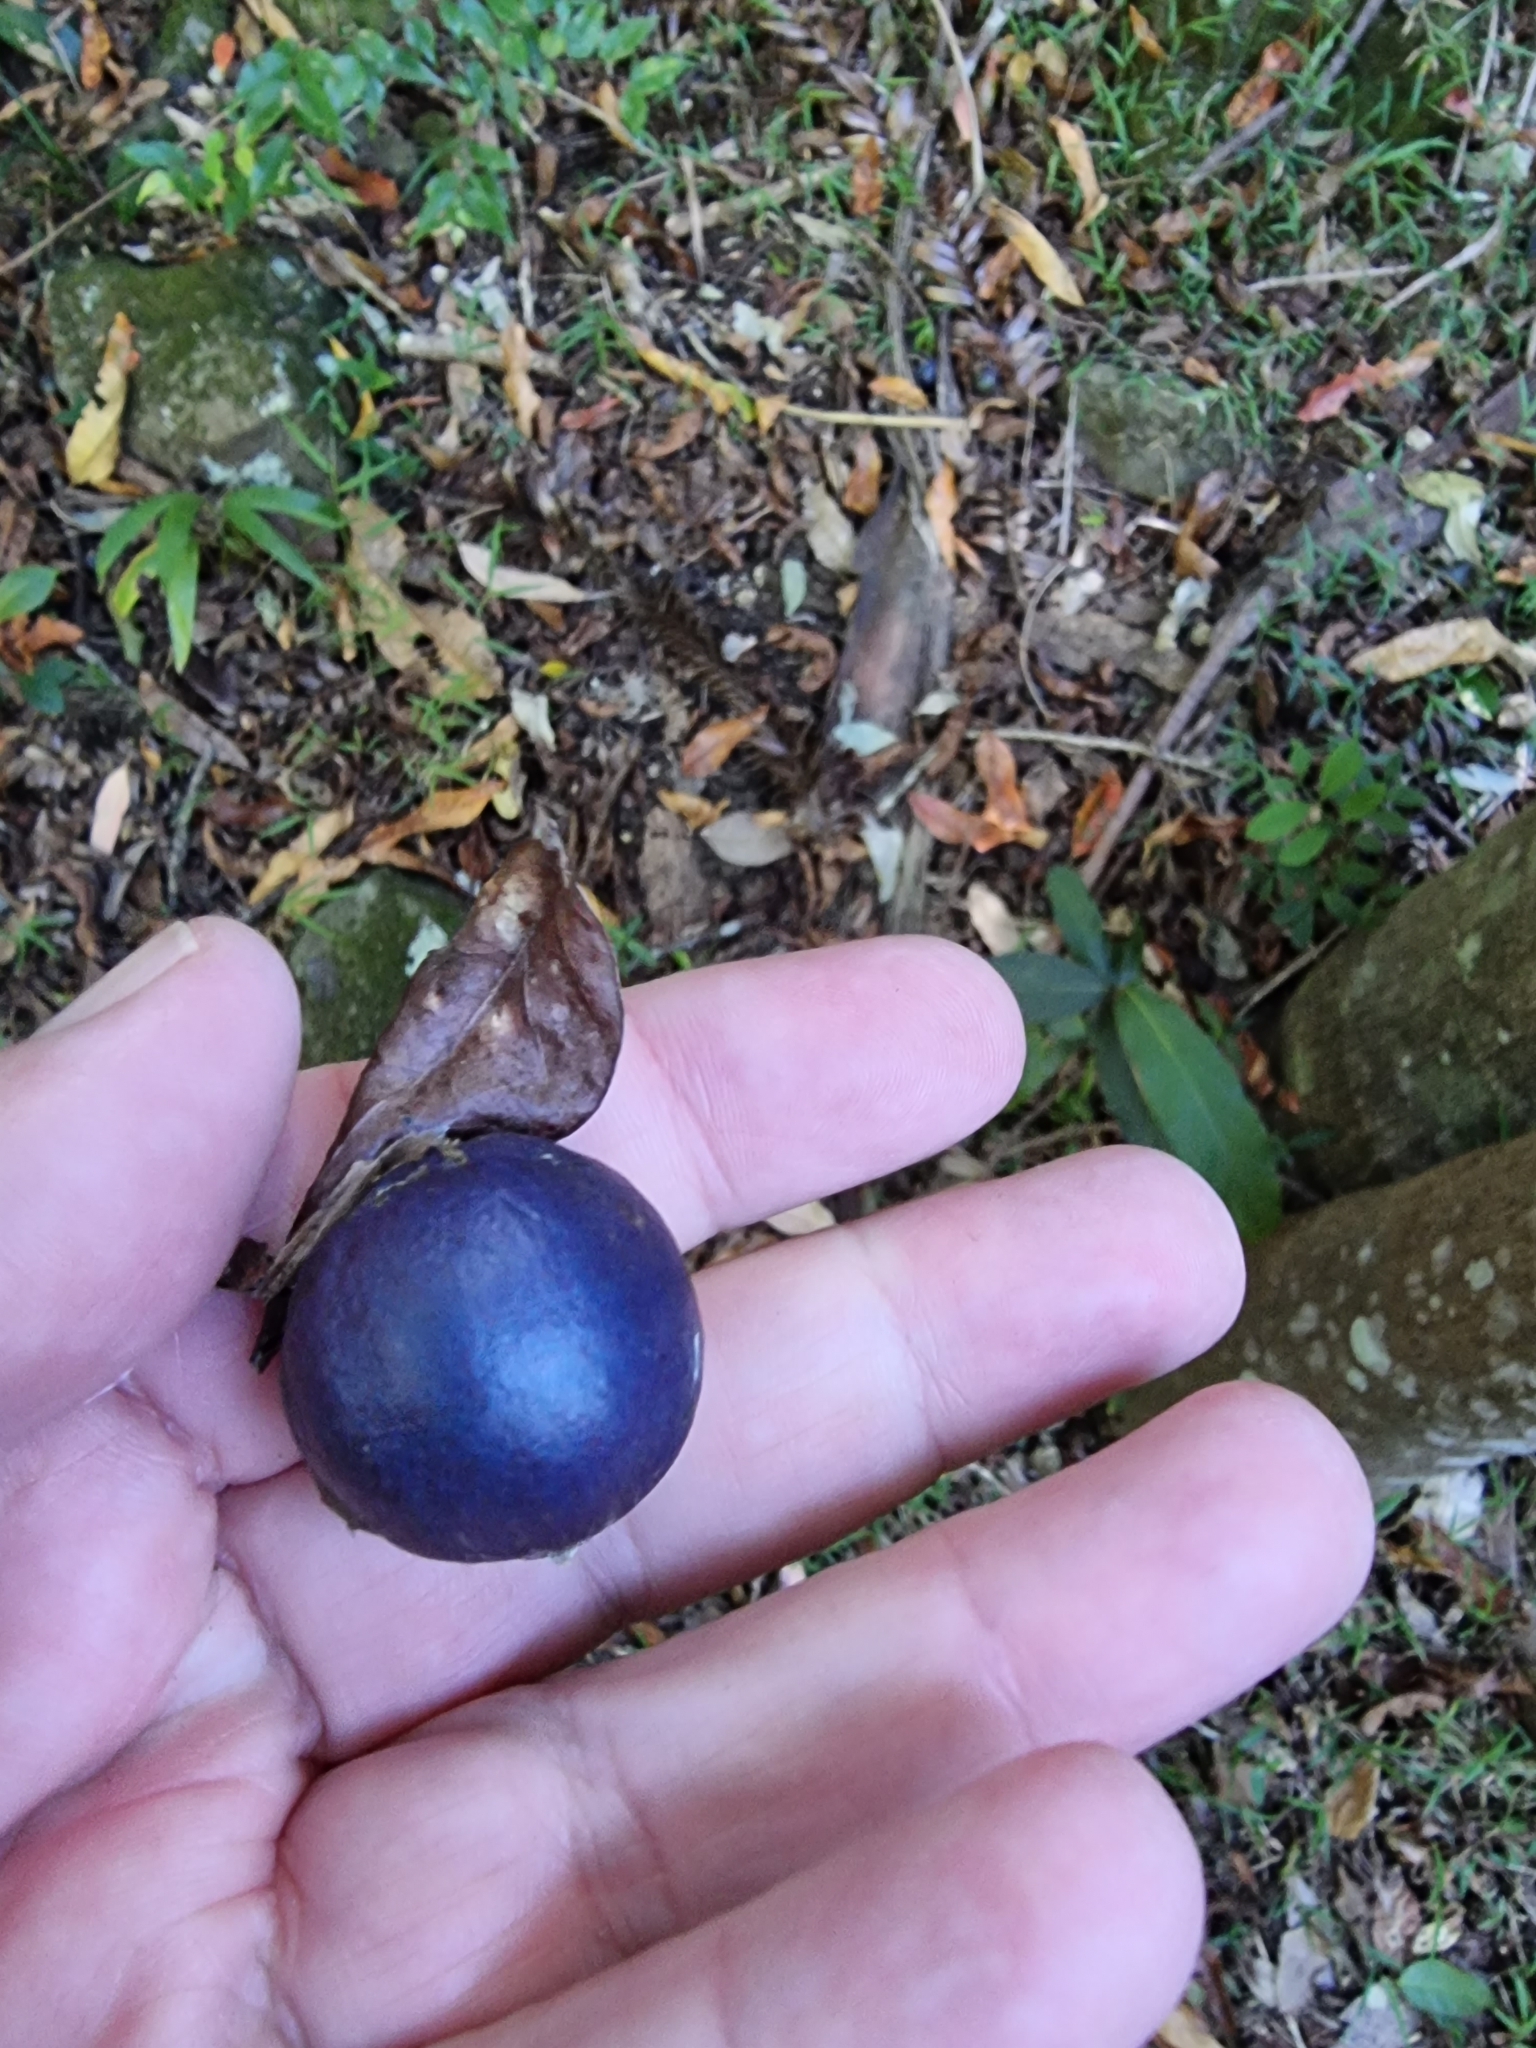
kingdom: Plantae
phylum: Tracheophyta
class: Magnoliopsida
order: Oxalidales
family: Elaeocarpaceae
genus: Elaeocarpus
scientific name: Elaeocarpus angustifolius
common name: Blue marble tree
